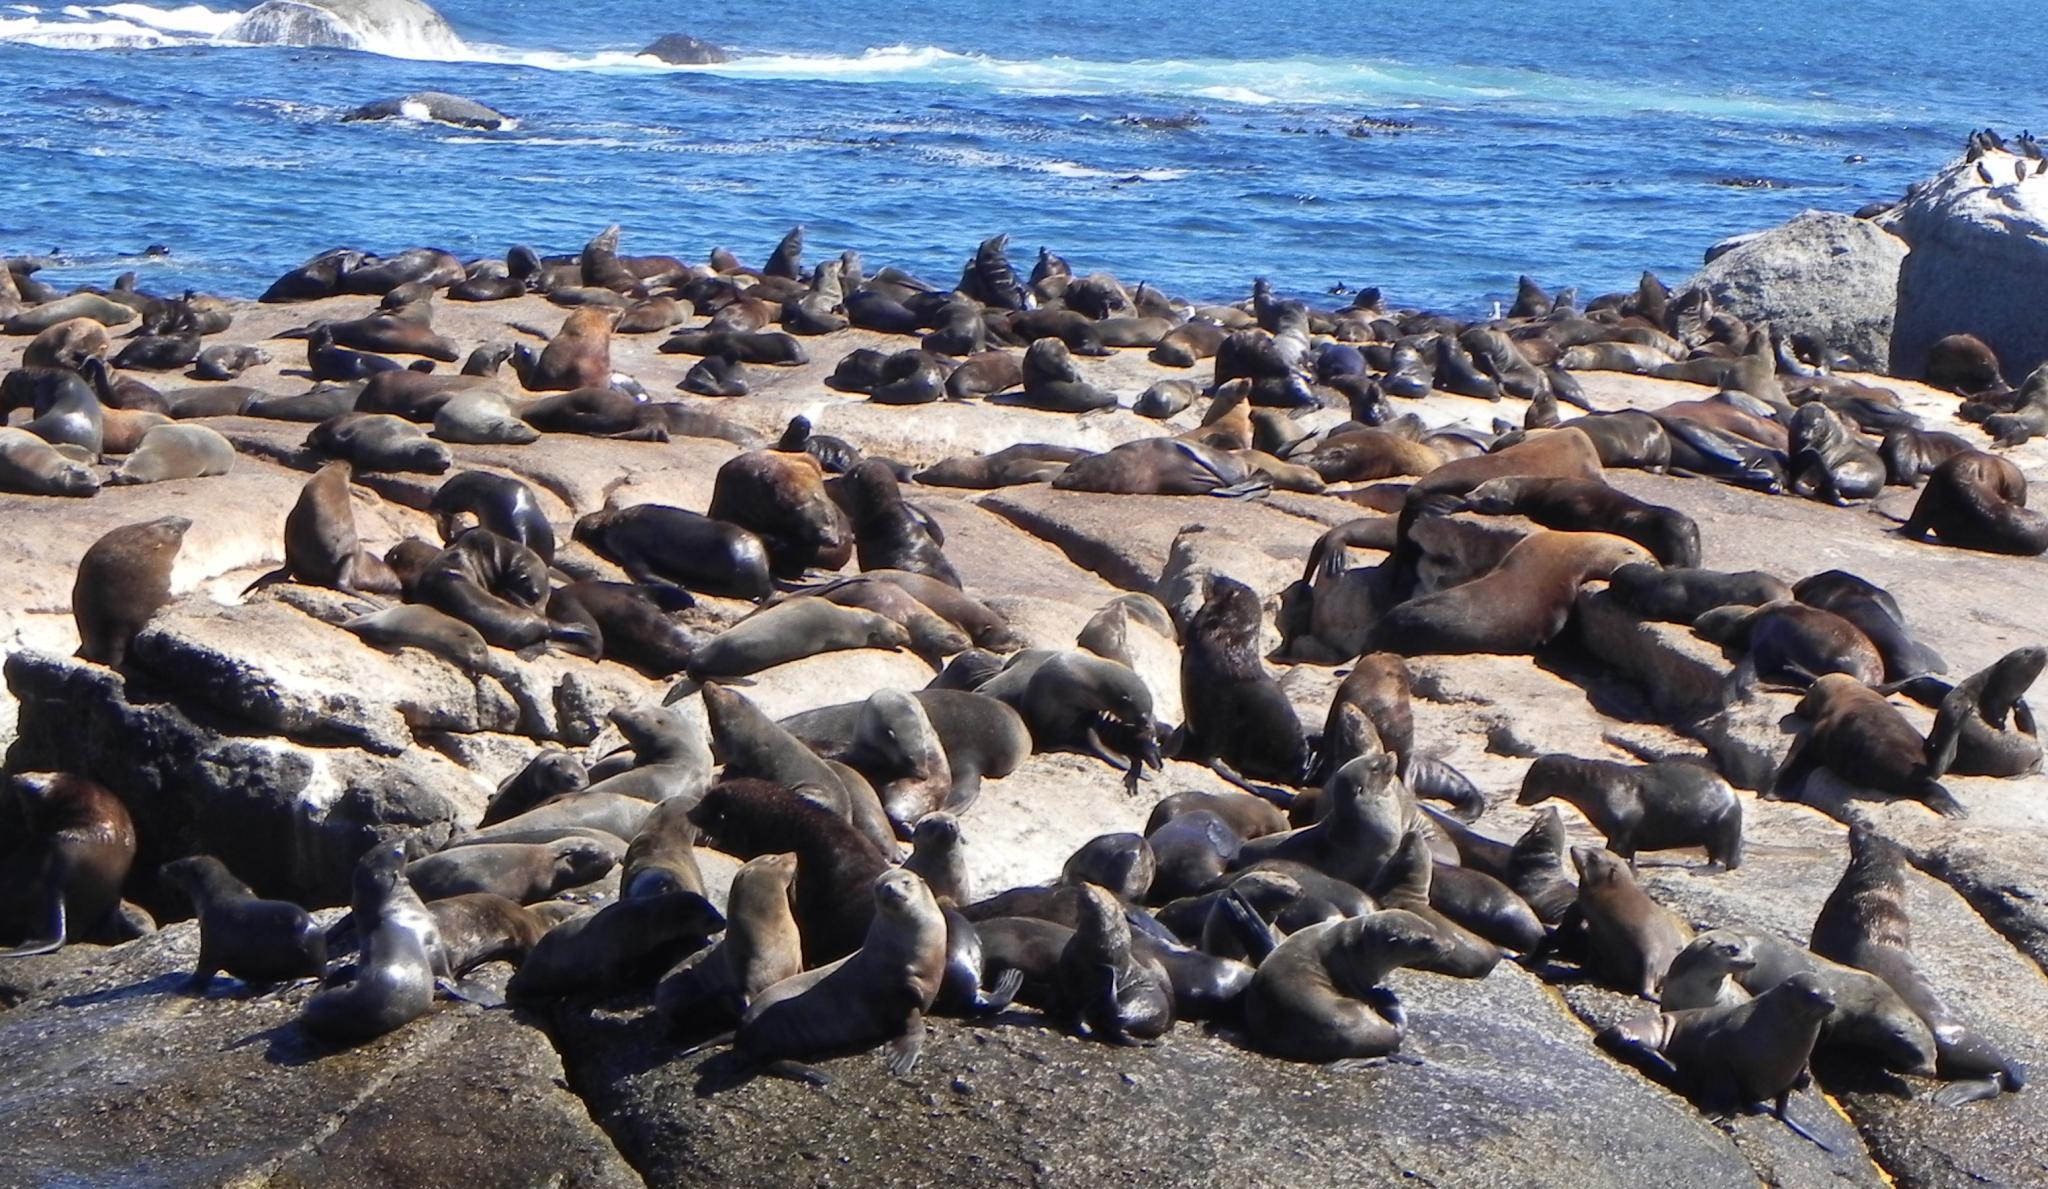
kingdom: Animalia
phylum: Chordata
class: Mammalia
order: Carnivora
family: Otariidae
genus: Arctocephalus
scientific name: Arctocephalus pusillus
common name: Brown fur seal
